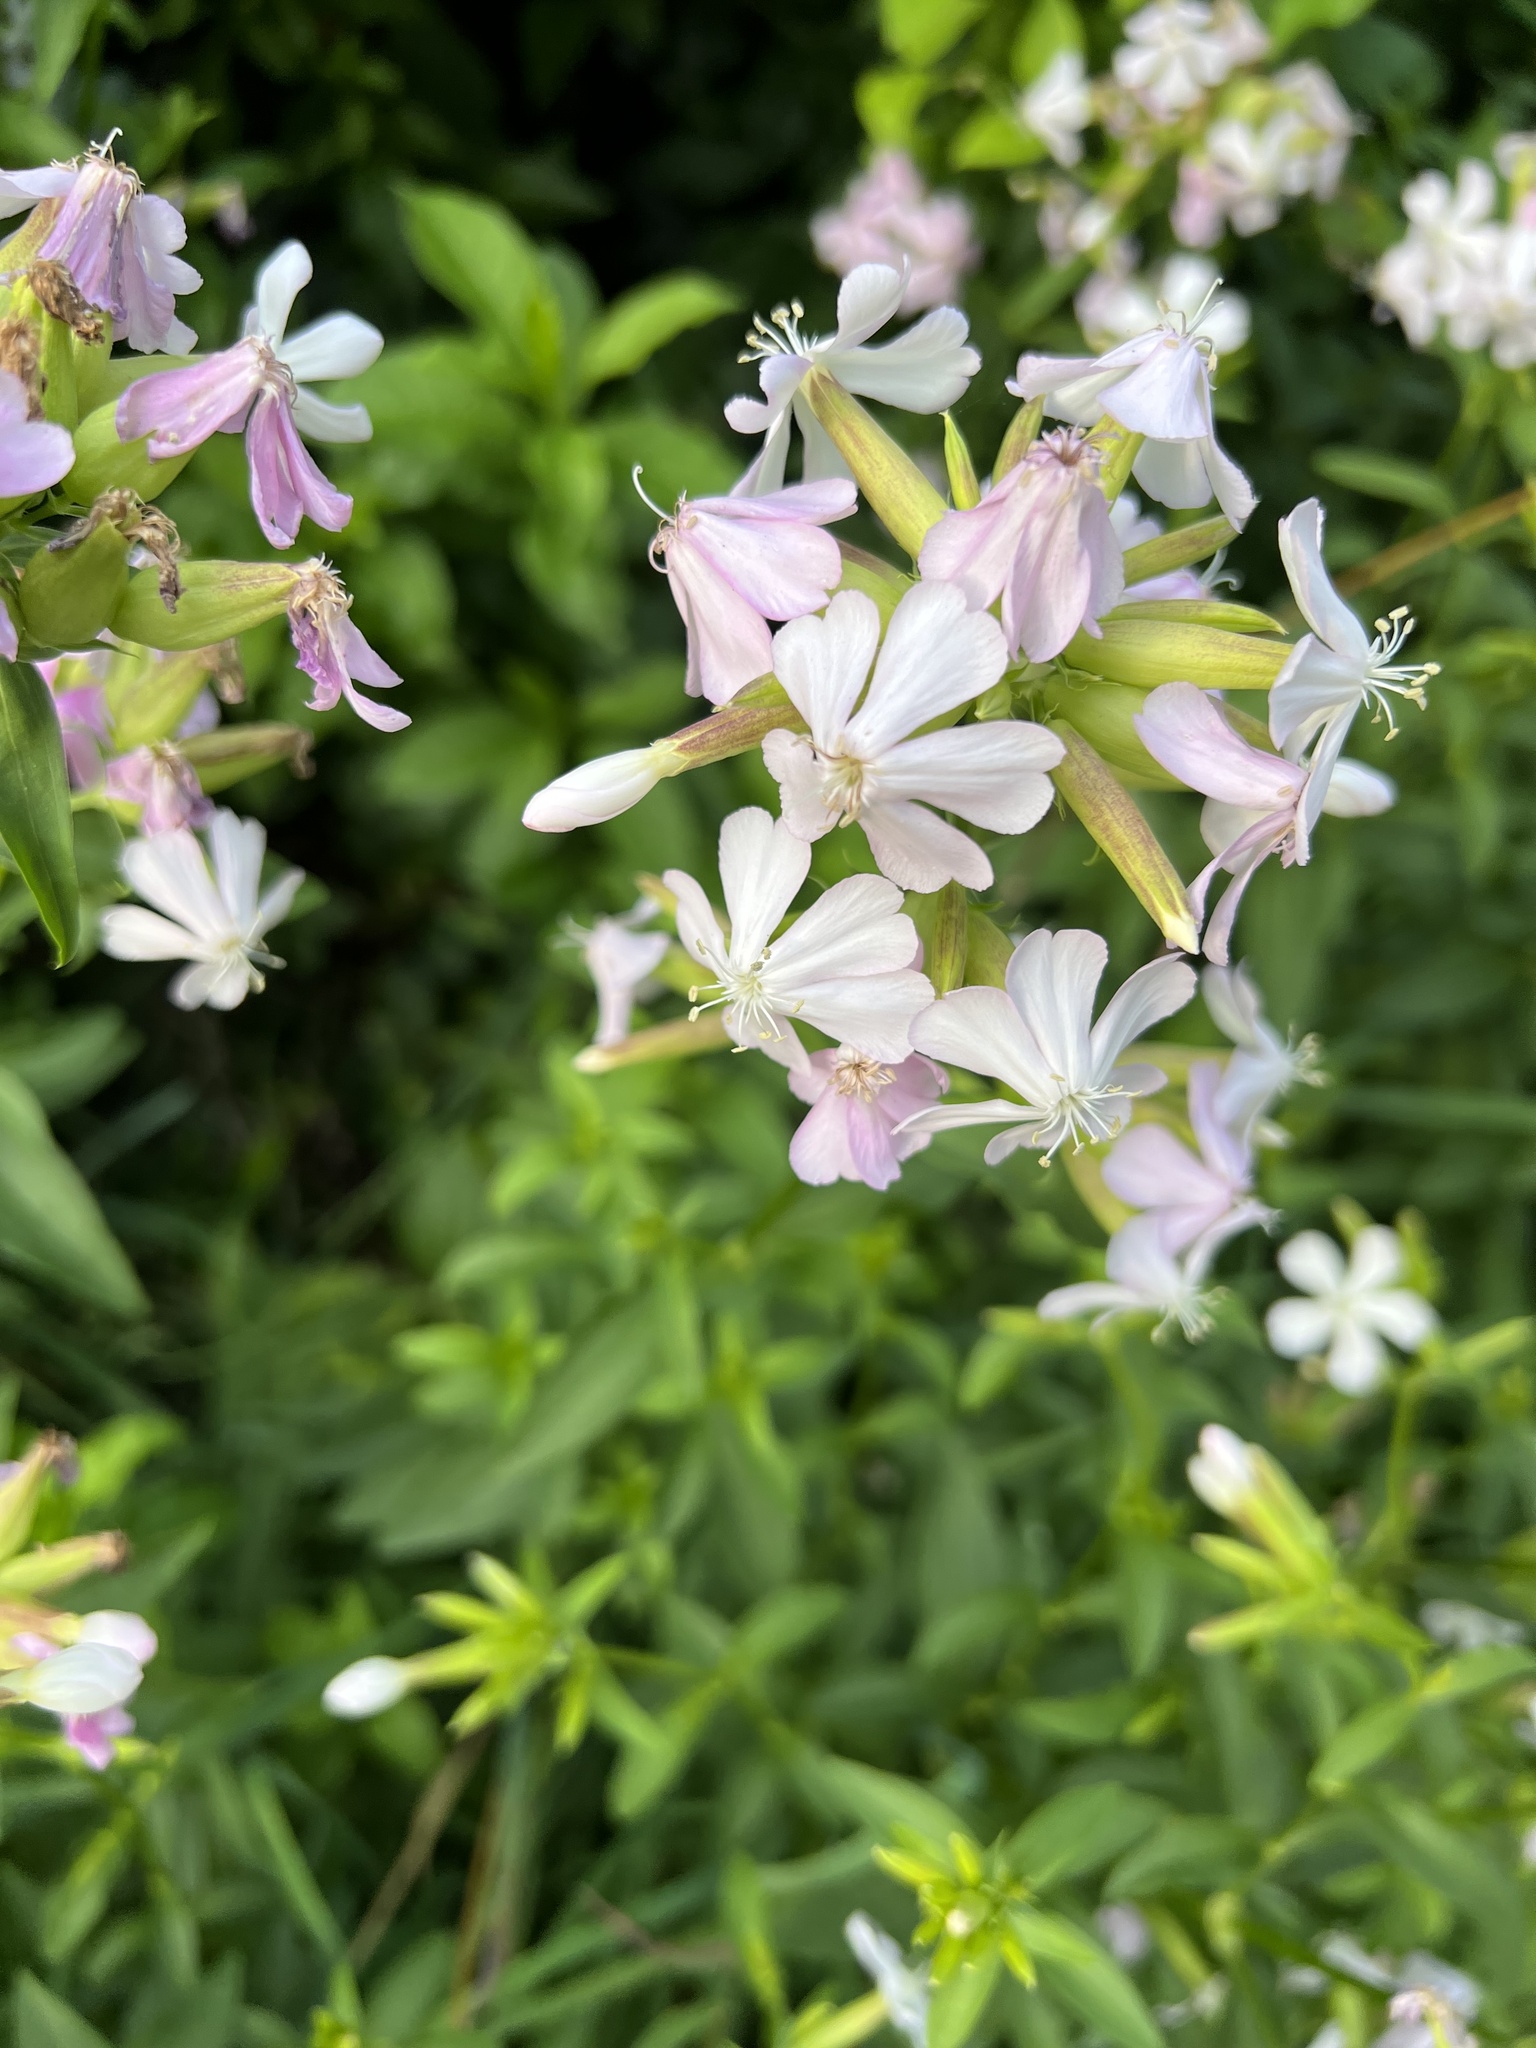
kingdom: Plantae
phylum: Tracheophyta
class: Magnoliopsida
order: Caryophyllales
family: Caryophyllaceae
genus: Saponaria
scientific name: Saponaria officinalis
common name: Soapwort
